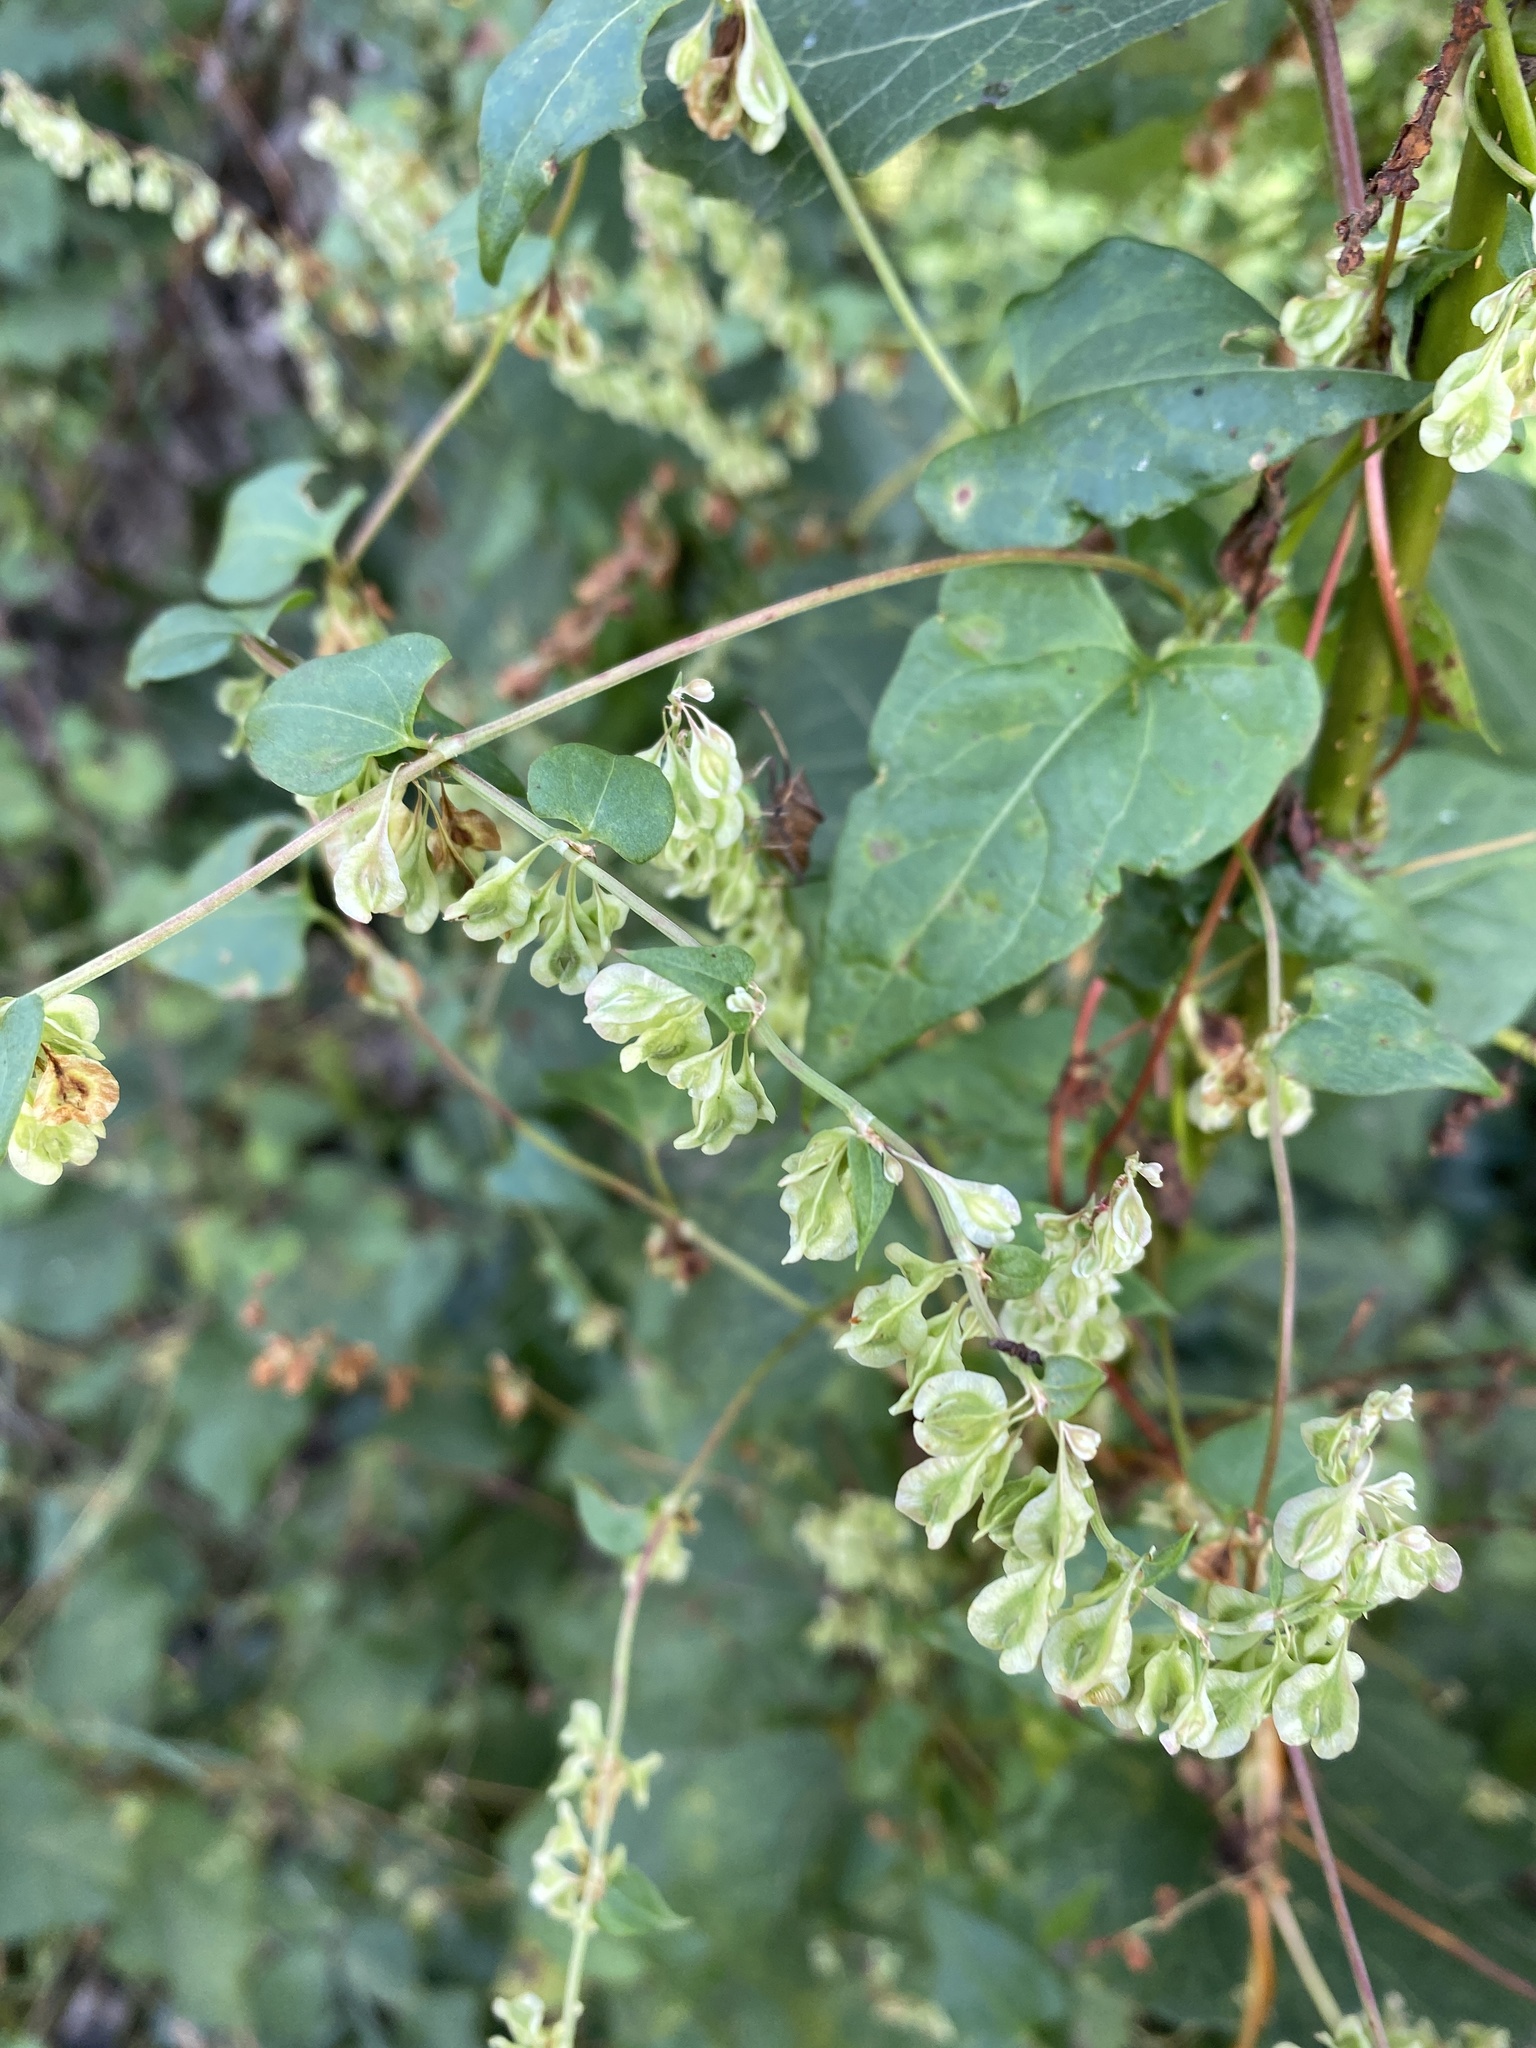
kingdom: Plantae
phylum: Tracheophyta
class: Magnoliopsida
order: Caryophyllales
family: Polygonaceae
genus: Fallopia
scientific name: Fallopia dumetorum
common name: Copse-bindweed
